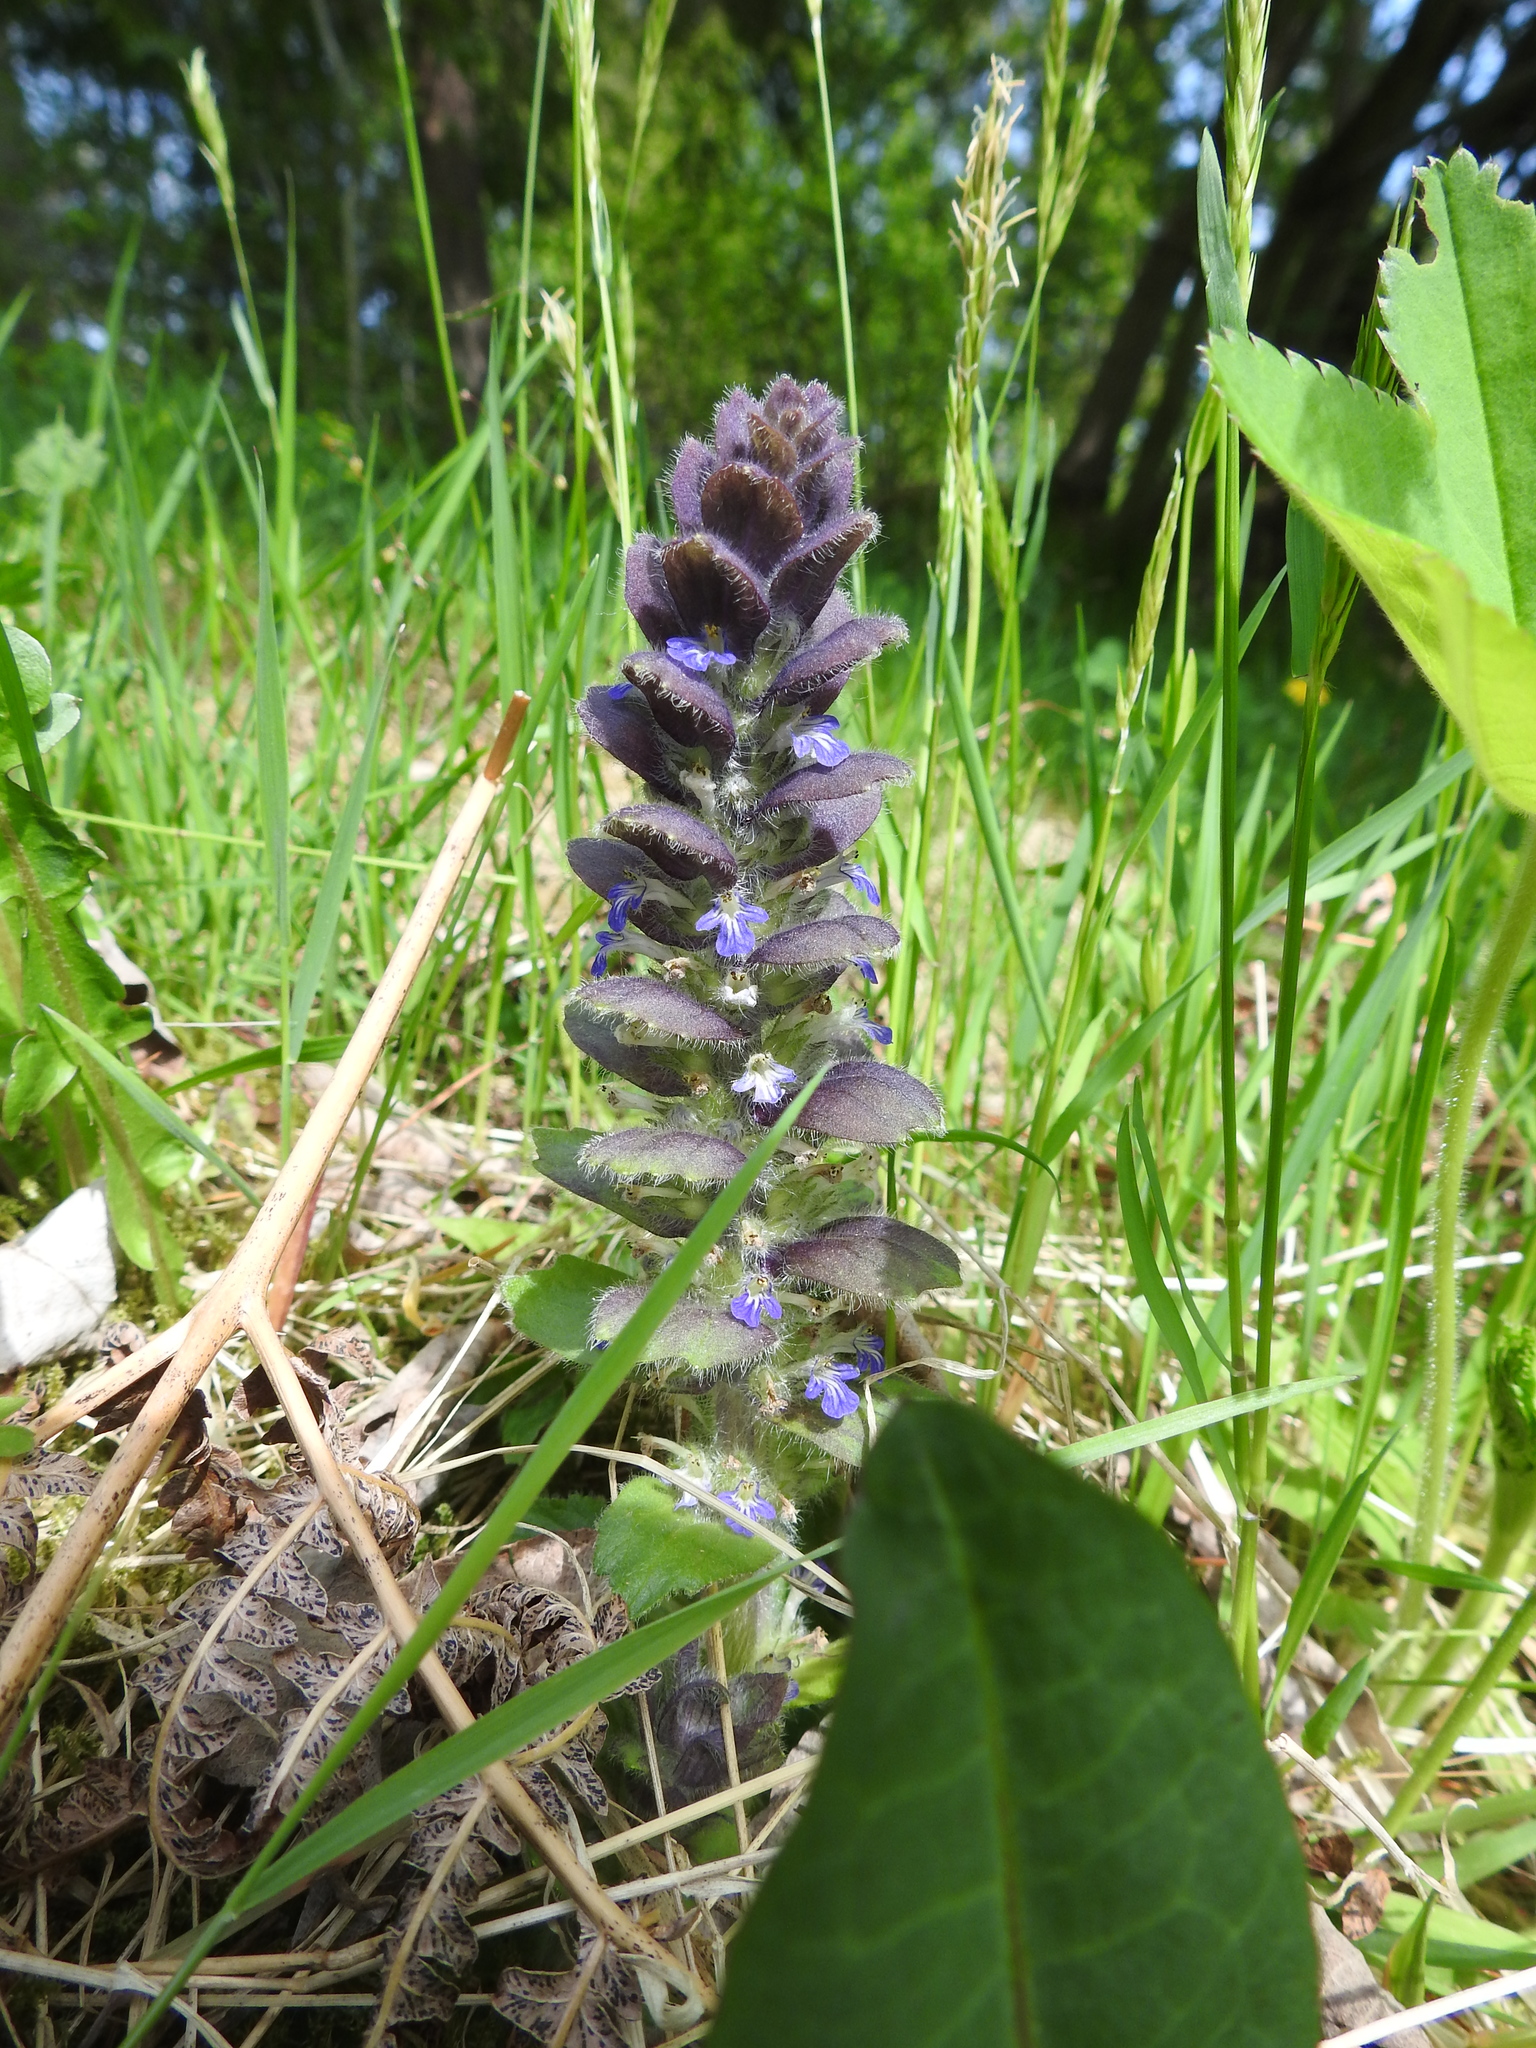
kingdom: Plantae
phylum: Tracheophyta
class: Magnoliopsida
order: Lamiales
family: Lamiaceae
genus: Ajuga
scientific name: Ajuga pyramidalis
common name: Pyramid bugle
